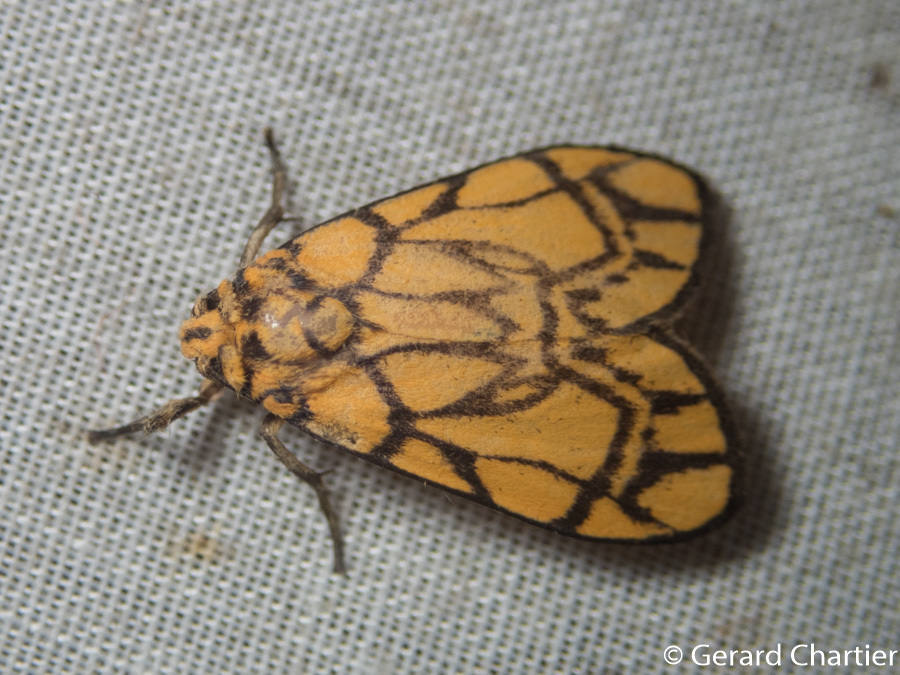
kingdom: Animalia
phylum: Arthropoda
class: Insecta
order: Lepidoptera
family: Erebidae
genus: Cyme
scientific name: Cyme euprepioides
